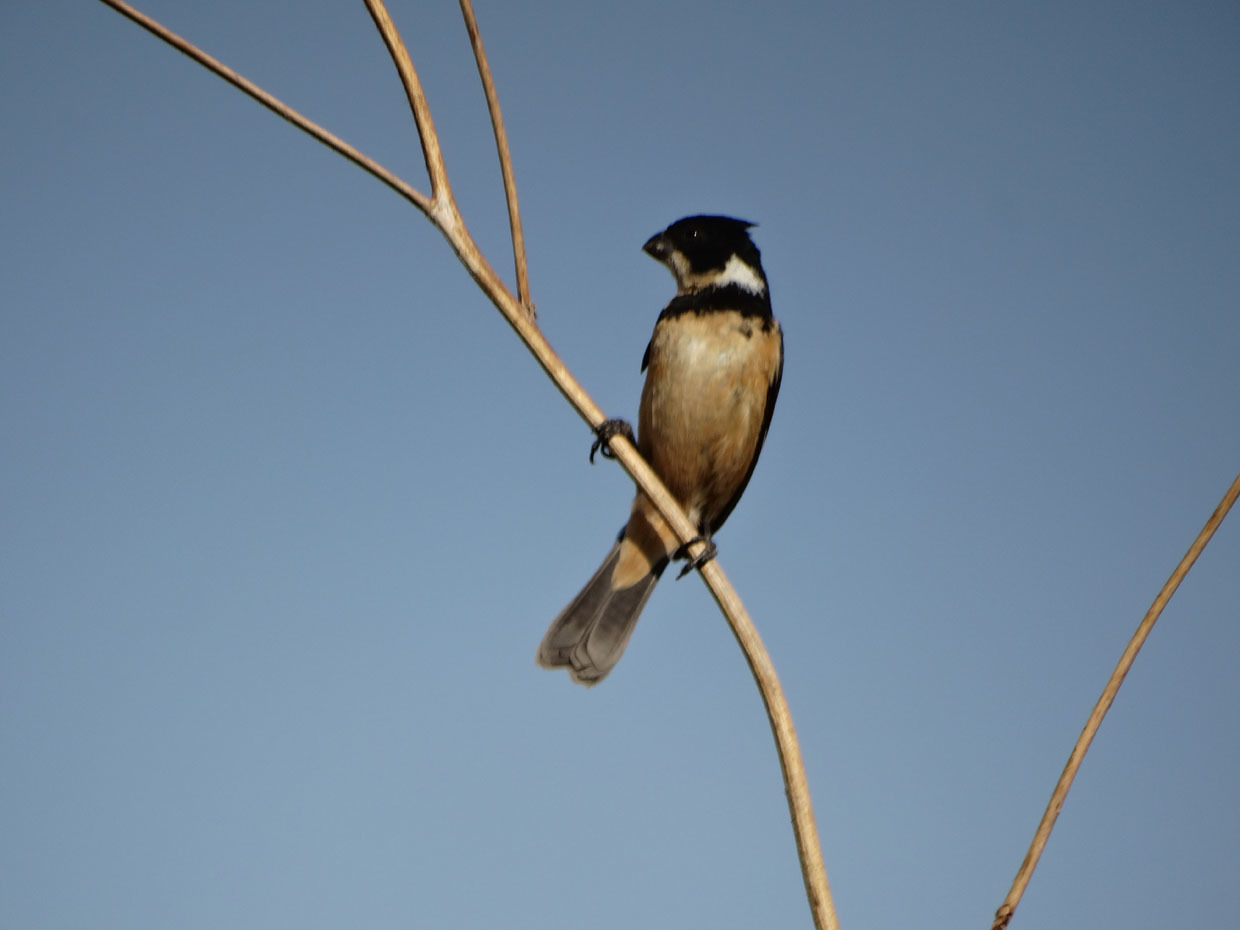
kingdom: Animalia
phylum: Chordata
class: Aves
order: Passeriformes
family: Thraupidae
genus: Sporophila
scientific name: Sporophila torqueola
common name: White-collared seedeater
